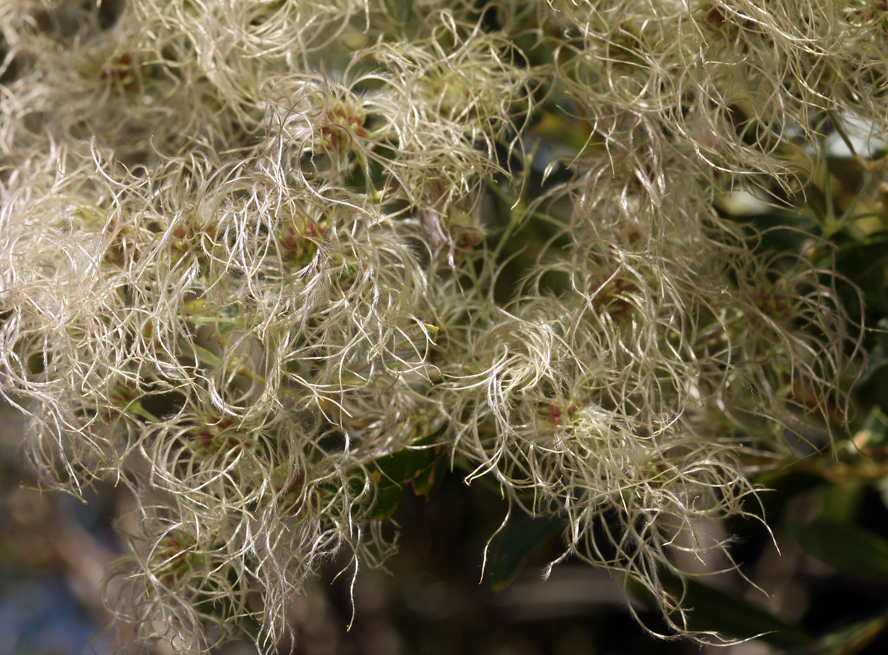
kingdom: Plantae
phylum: Tracheophyta
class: Magnoliopsida
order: Ranunculales
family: Ranunculaceae
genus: Clematis
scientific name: Clematis ligusticifolia
